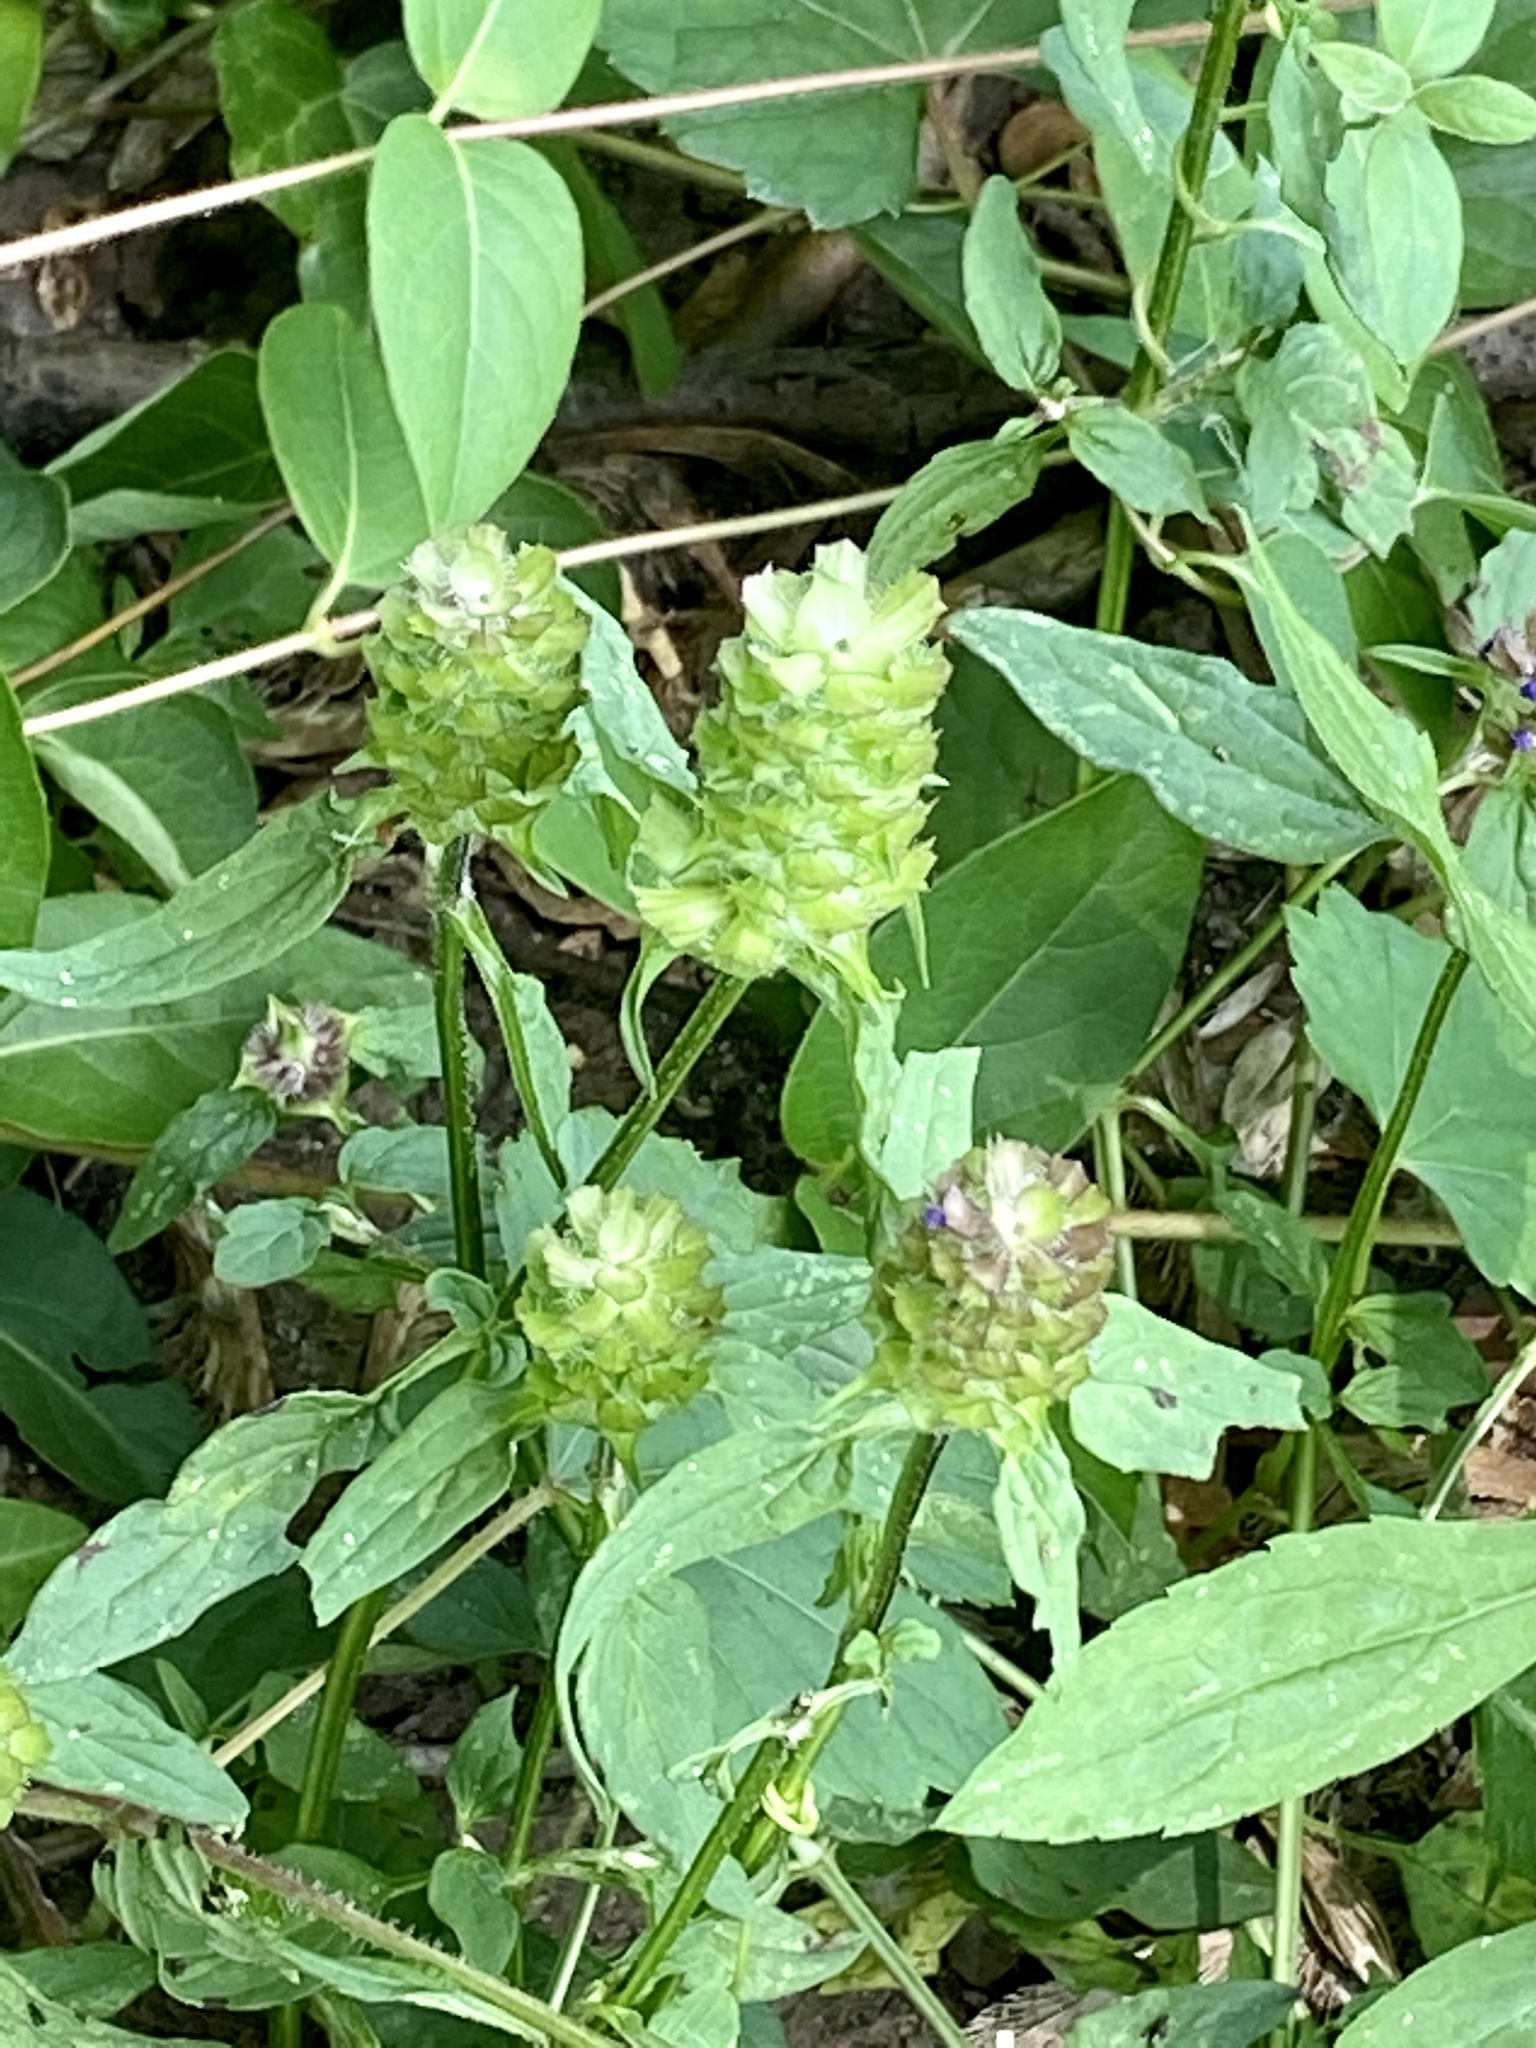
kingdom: Plantae
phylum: Tracheophyta
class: Magnoliopsida
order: Lamiales
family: Lamiaceae
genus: Prunella
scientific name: Prunella vulgaris
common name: Heal-all
